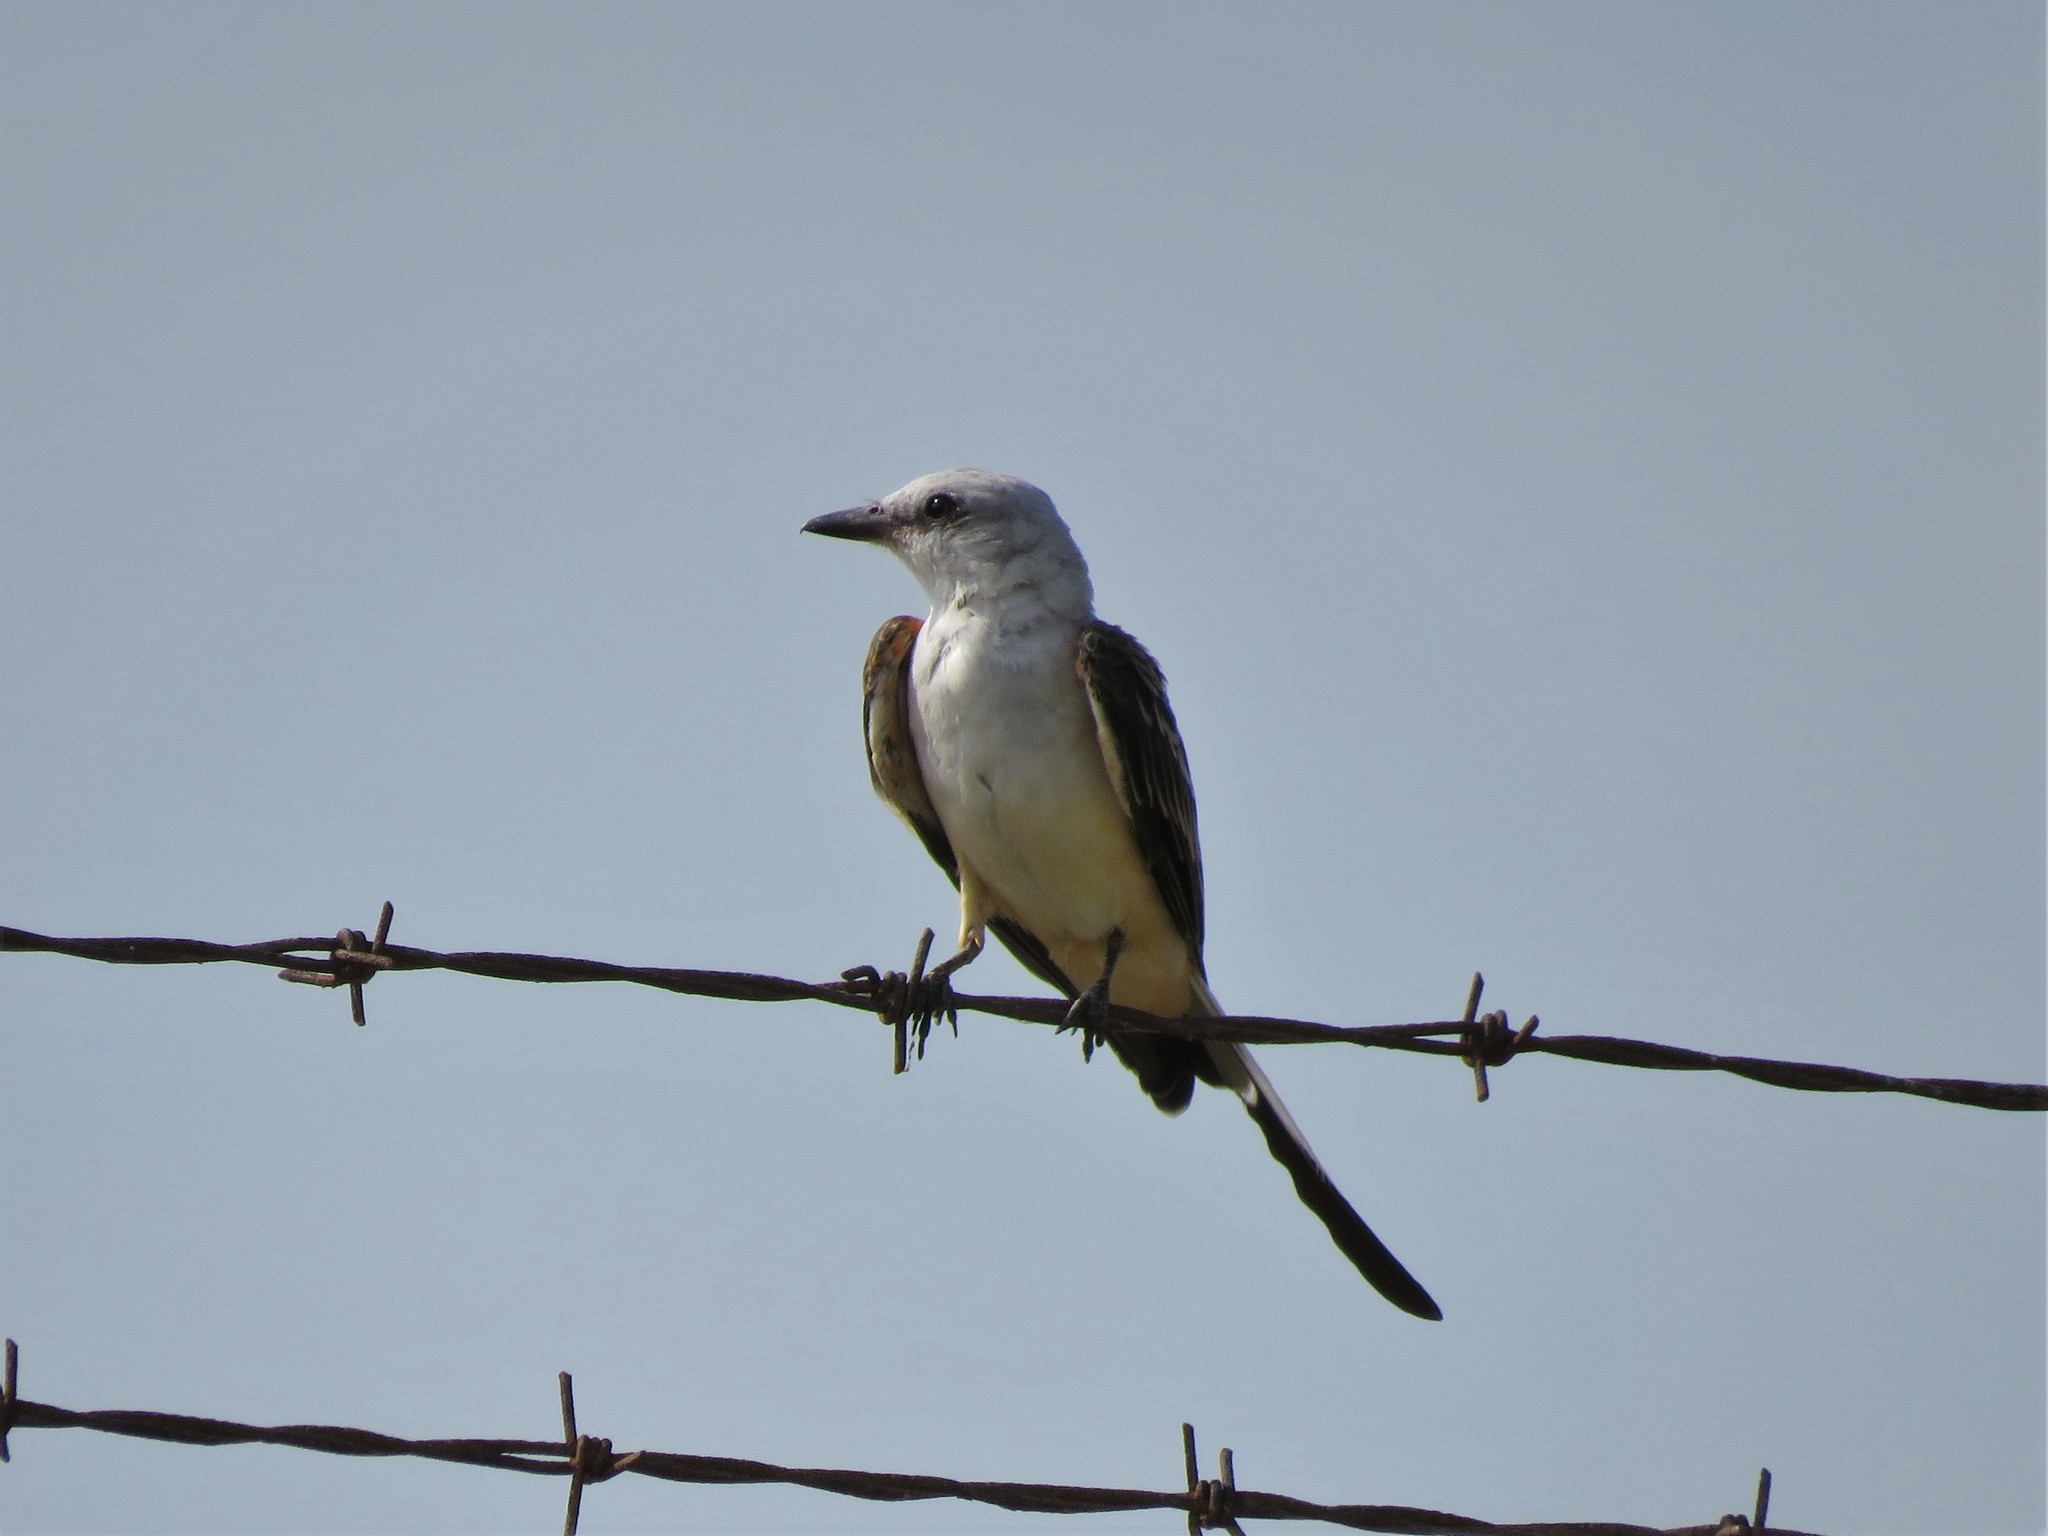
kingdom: Animalia
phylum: Chordata
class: Aves
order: Passeriformes
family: Tyrannidae
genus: Tyrannus
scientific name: Tyrannus forficatus
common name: Scissor-tailed flycatcher
